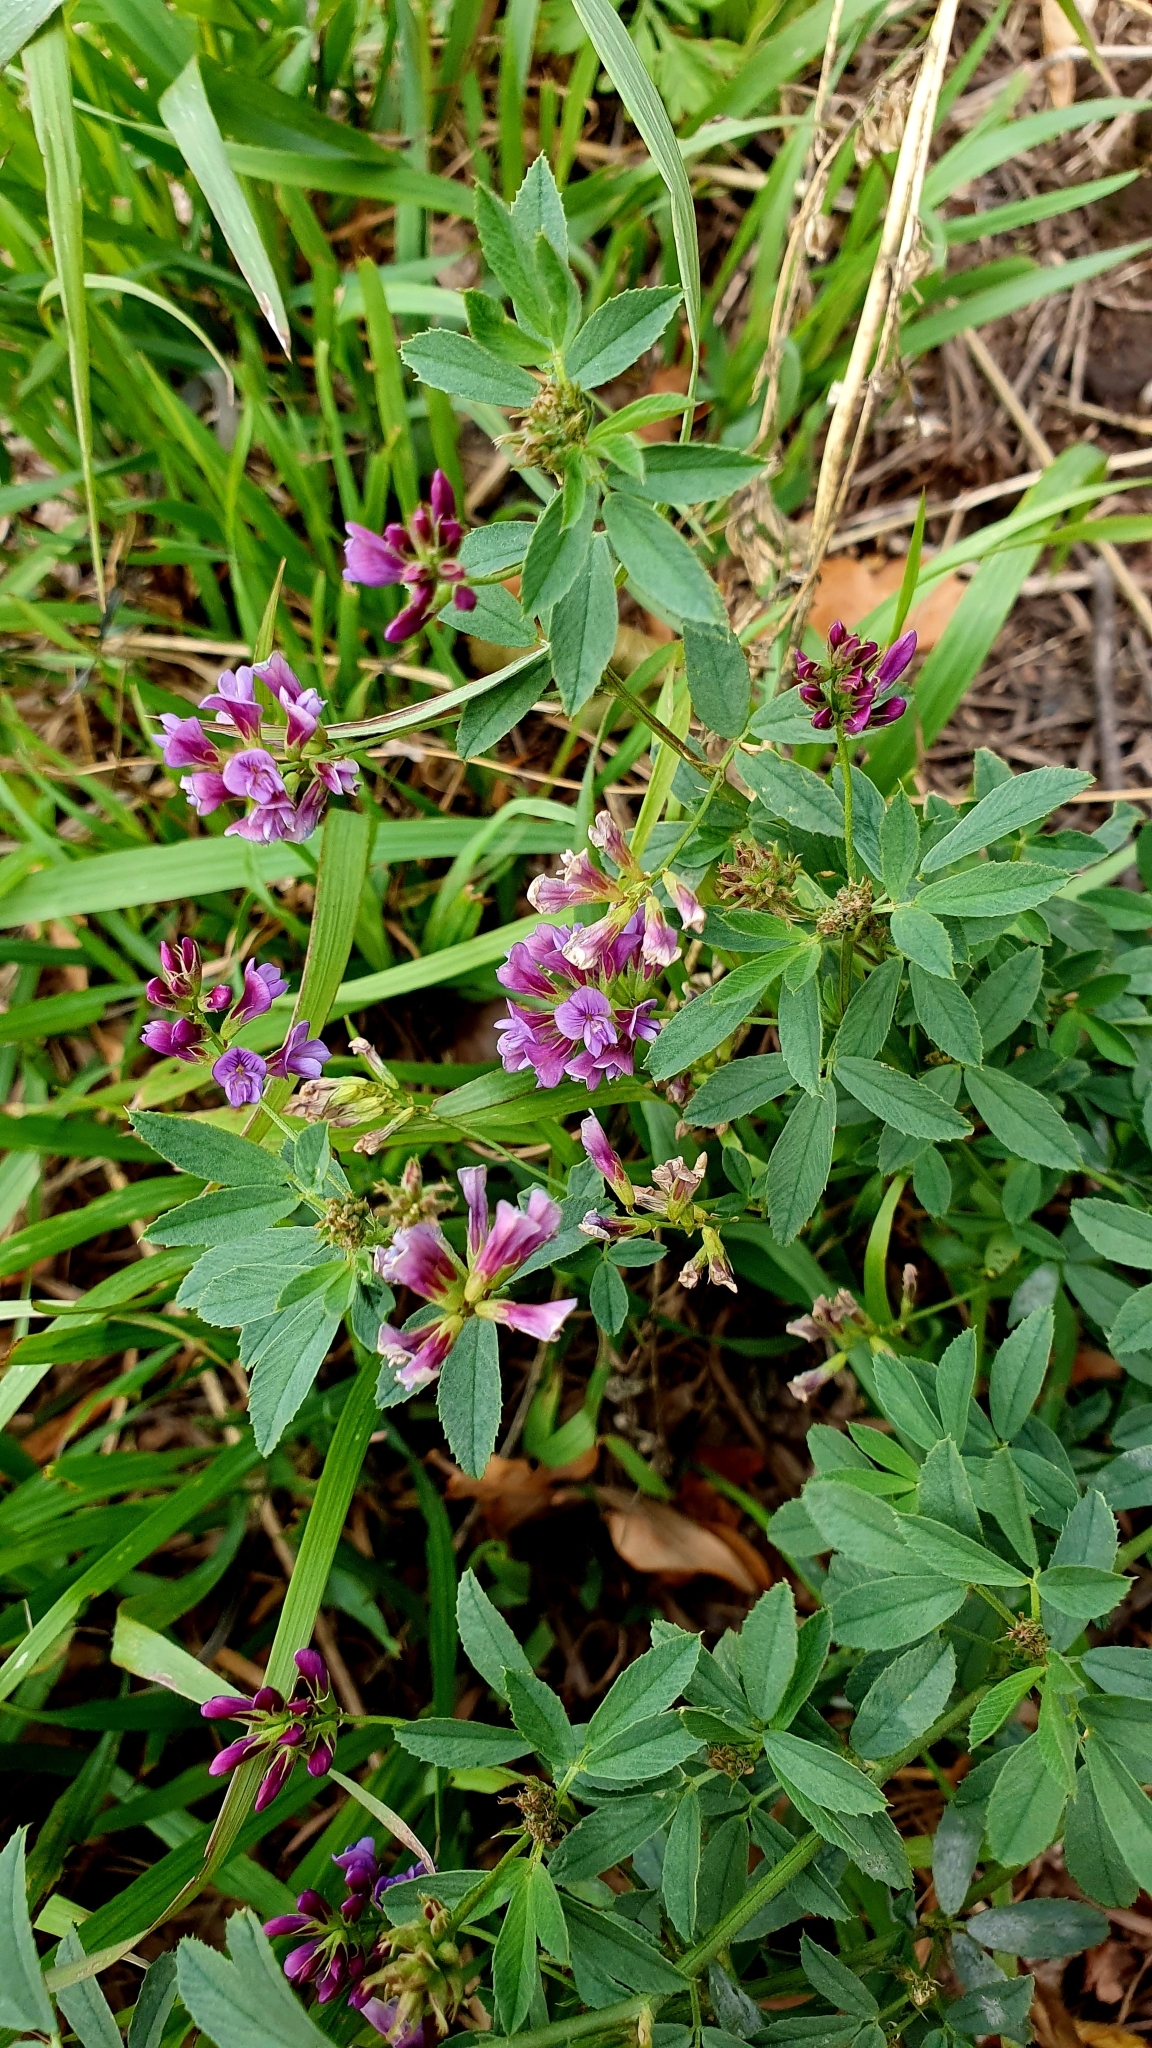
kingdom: Plantae
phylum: Tracheophyta
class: Magnoliopsida
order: Fabales
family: Fabaceae
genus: Medicago
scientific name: Medicago varia
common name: Sand lucerne
